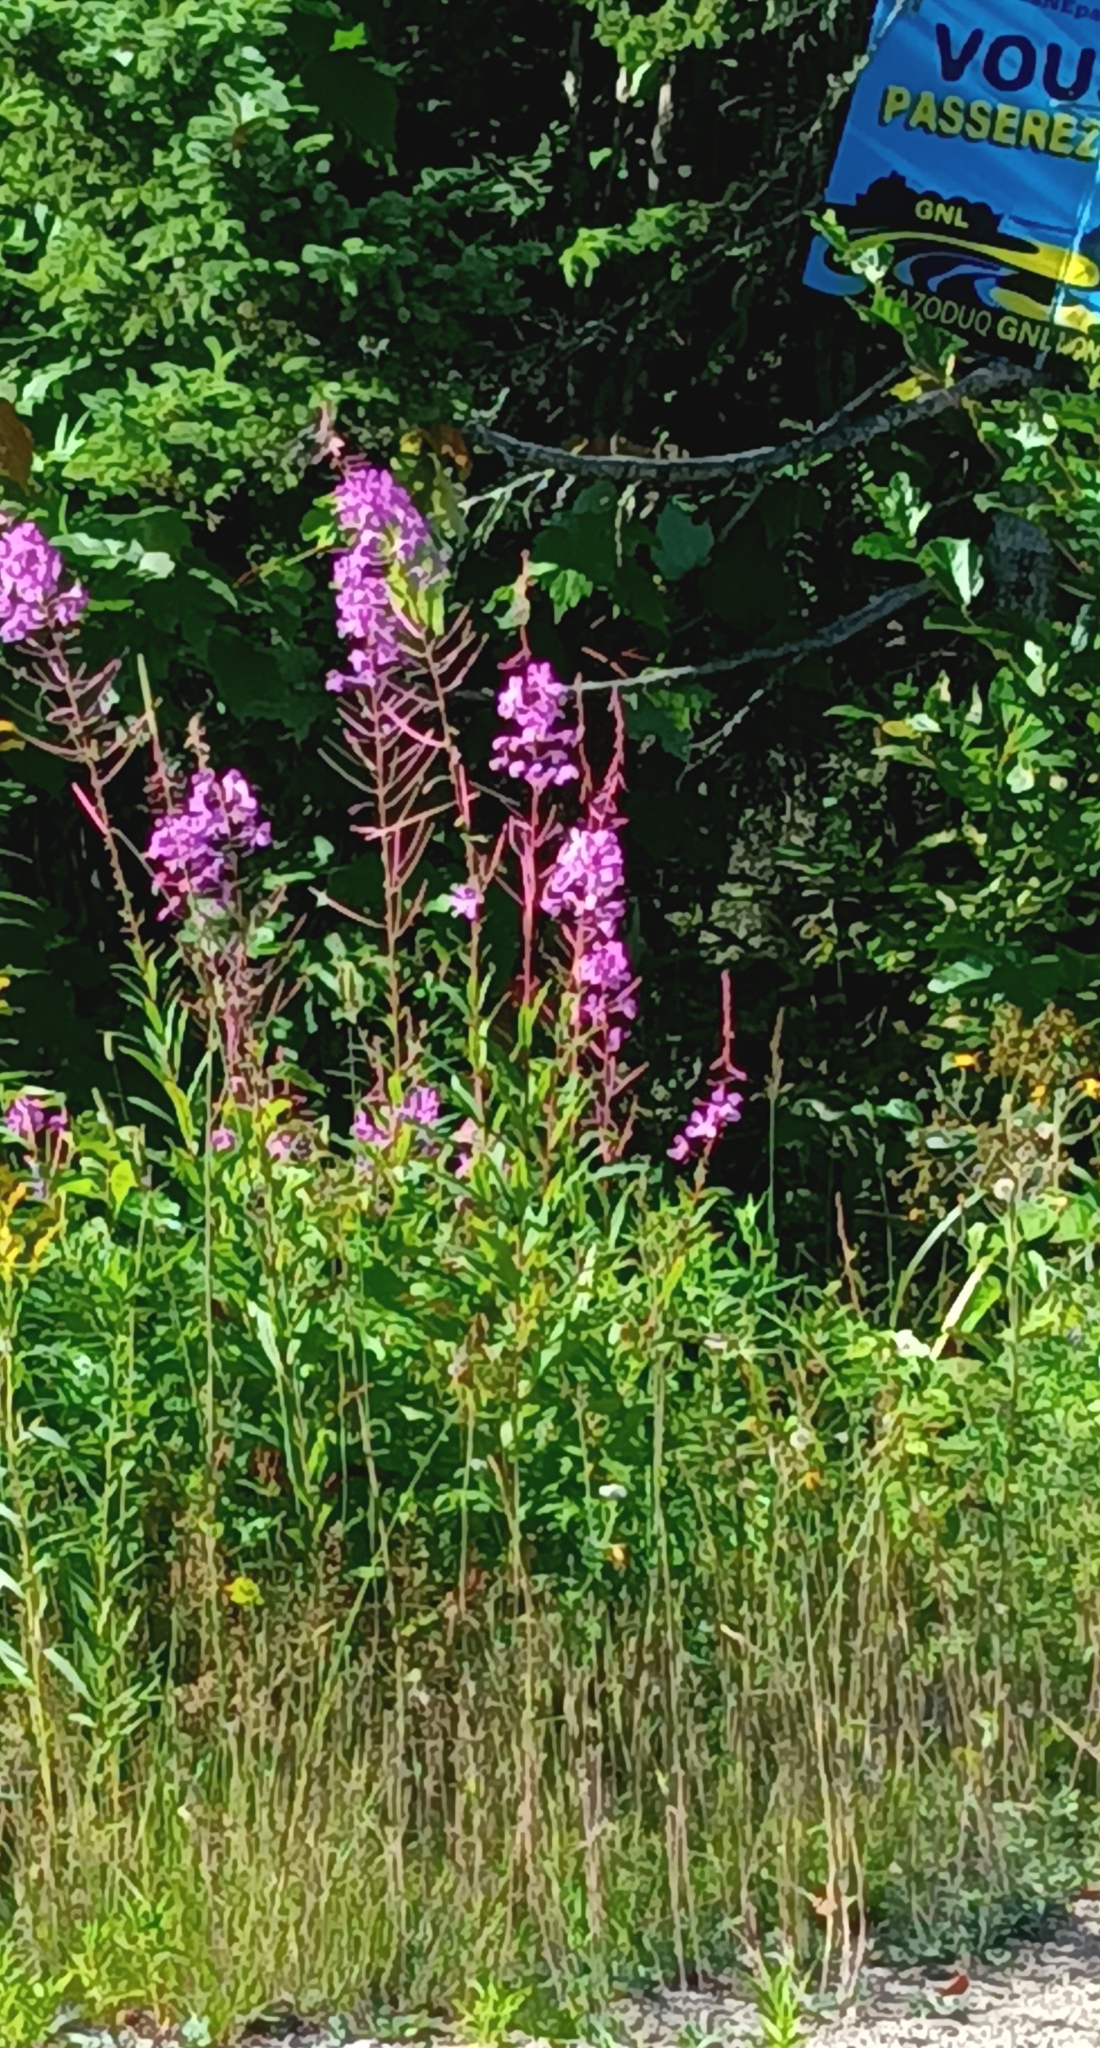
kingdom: Plantae
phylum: Tracheophyta
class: Magnoliopsida
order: Myrtales
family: Onagraceae
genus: Chamaenerion
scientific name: Chamaenerion angustifolium
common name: Fireweed
